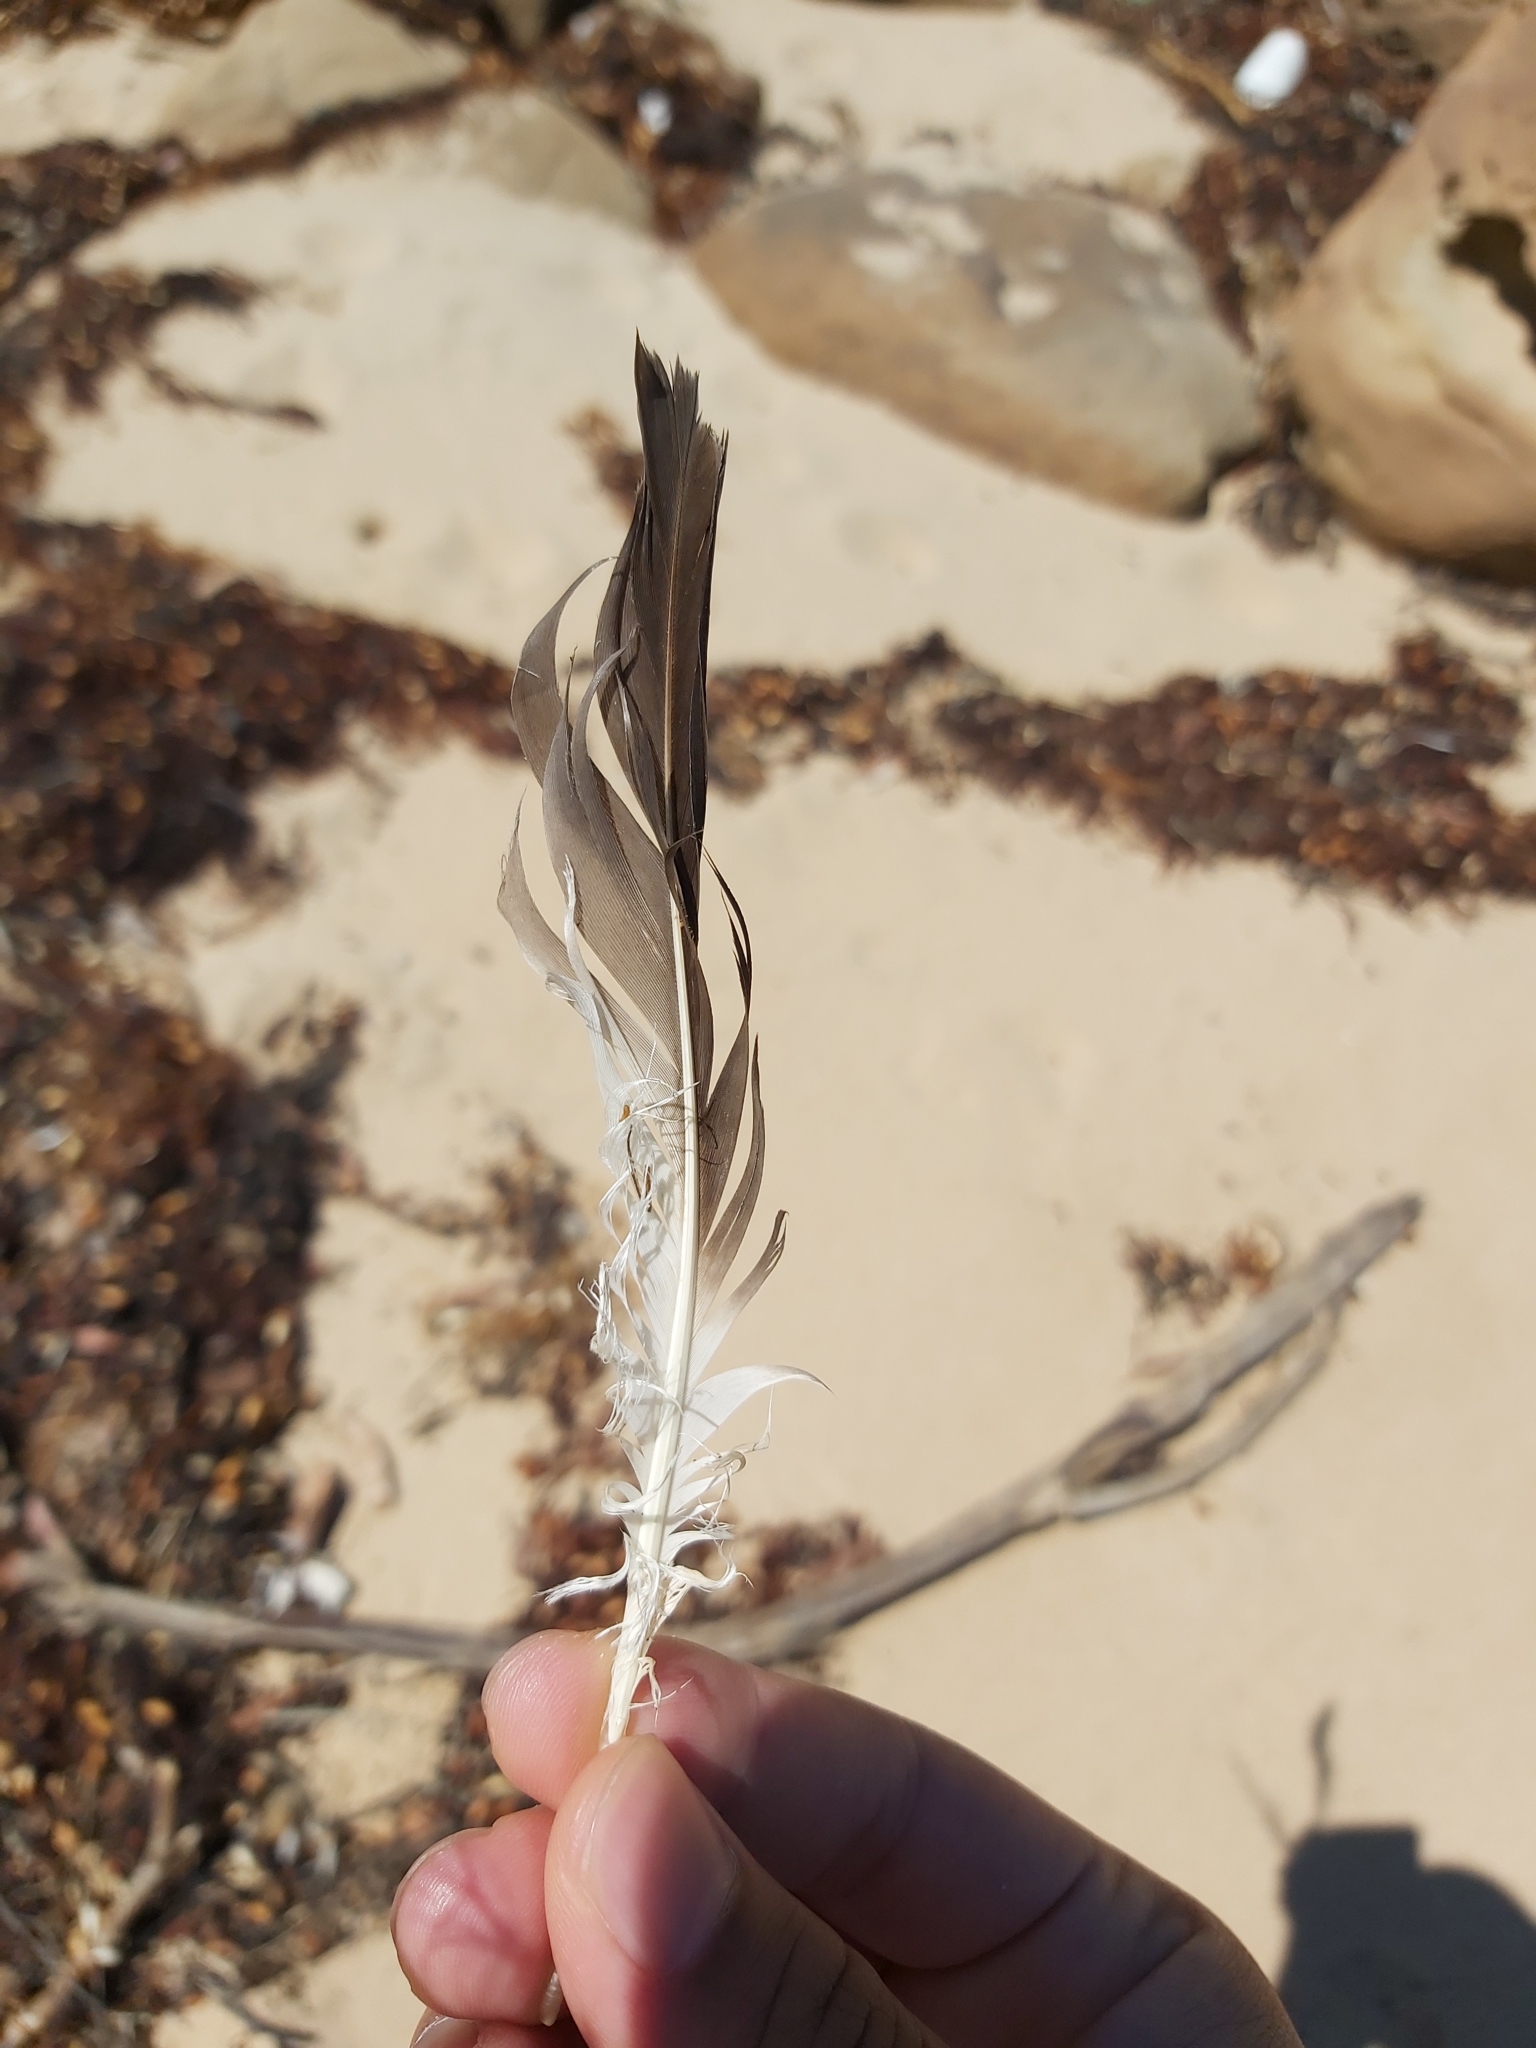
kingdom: Animalia
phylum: Chordata
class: Aves
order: Suliformes
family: Sulidae
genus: Morus
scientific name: Morus serrator
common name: Australasian gannet
